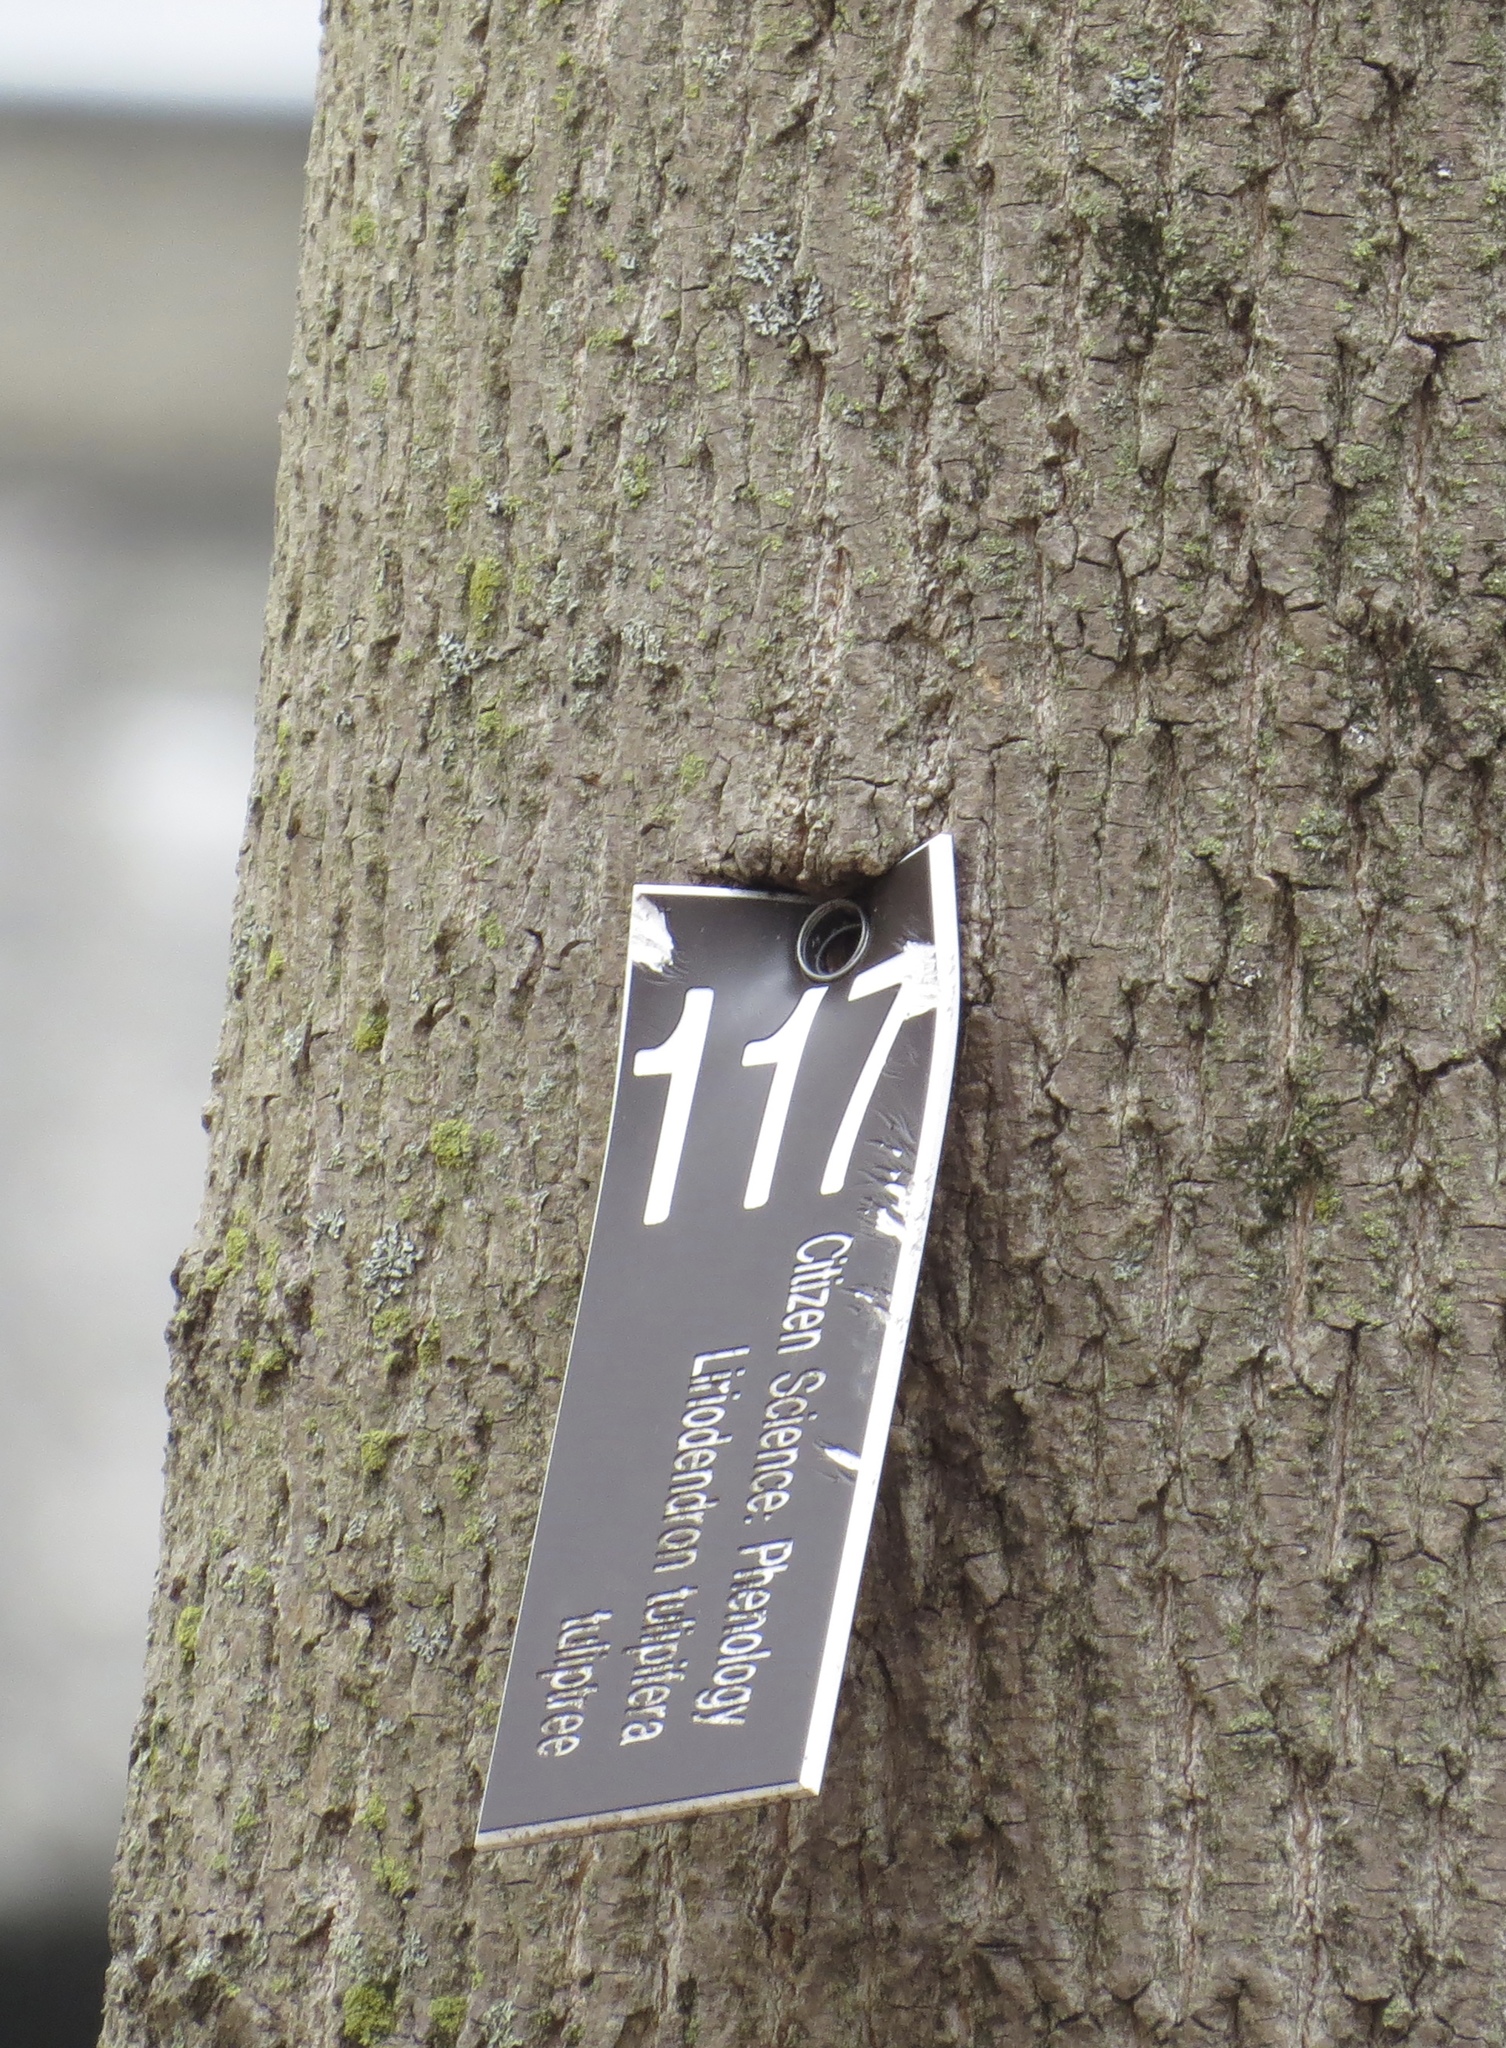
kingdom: Plantae
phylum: Tracheophyta
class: Magnoliopsida
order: Magnoliales
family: Magnoliaceae
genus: Liriodendron
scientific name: Liriodendron tulipifera
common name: Tulip tree
